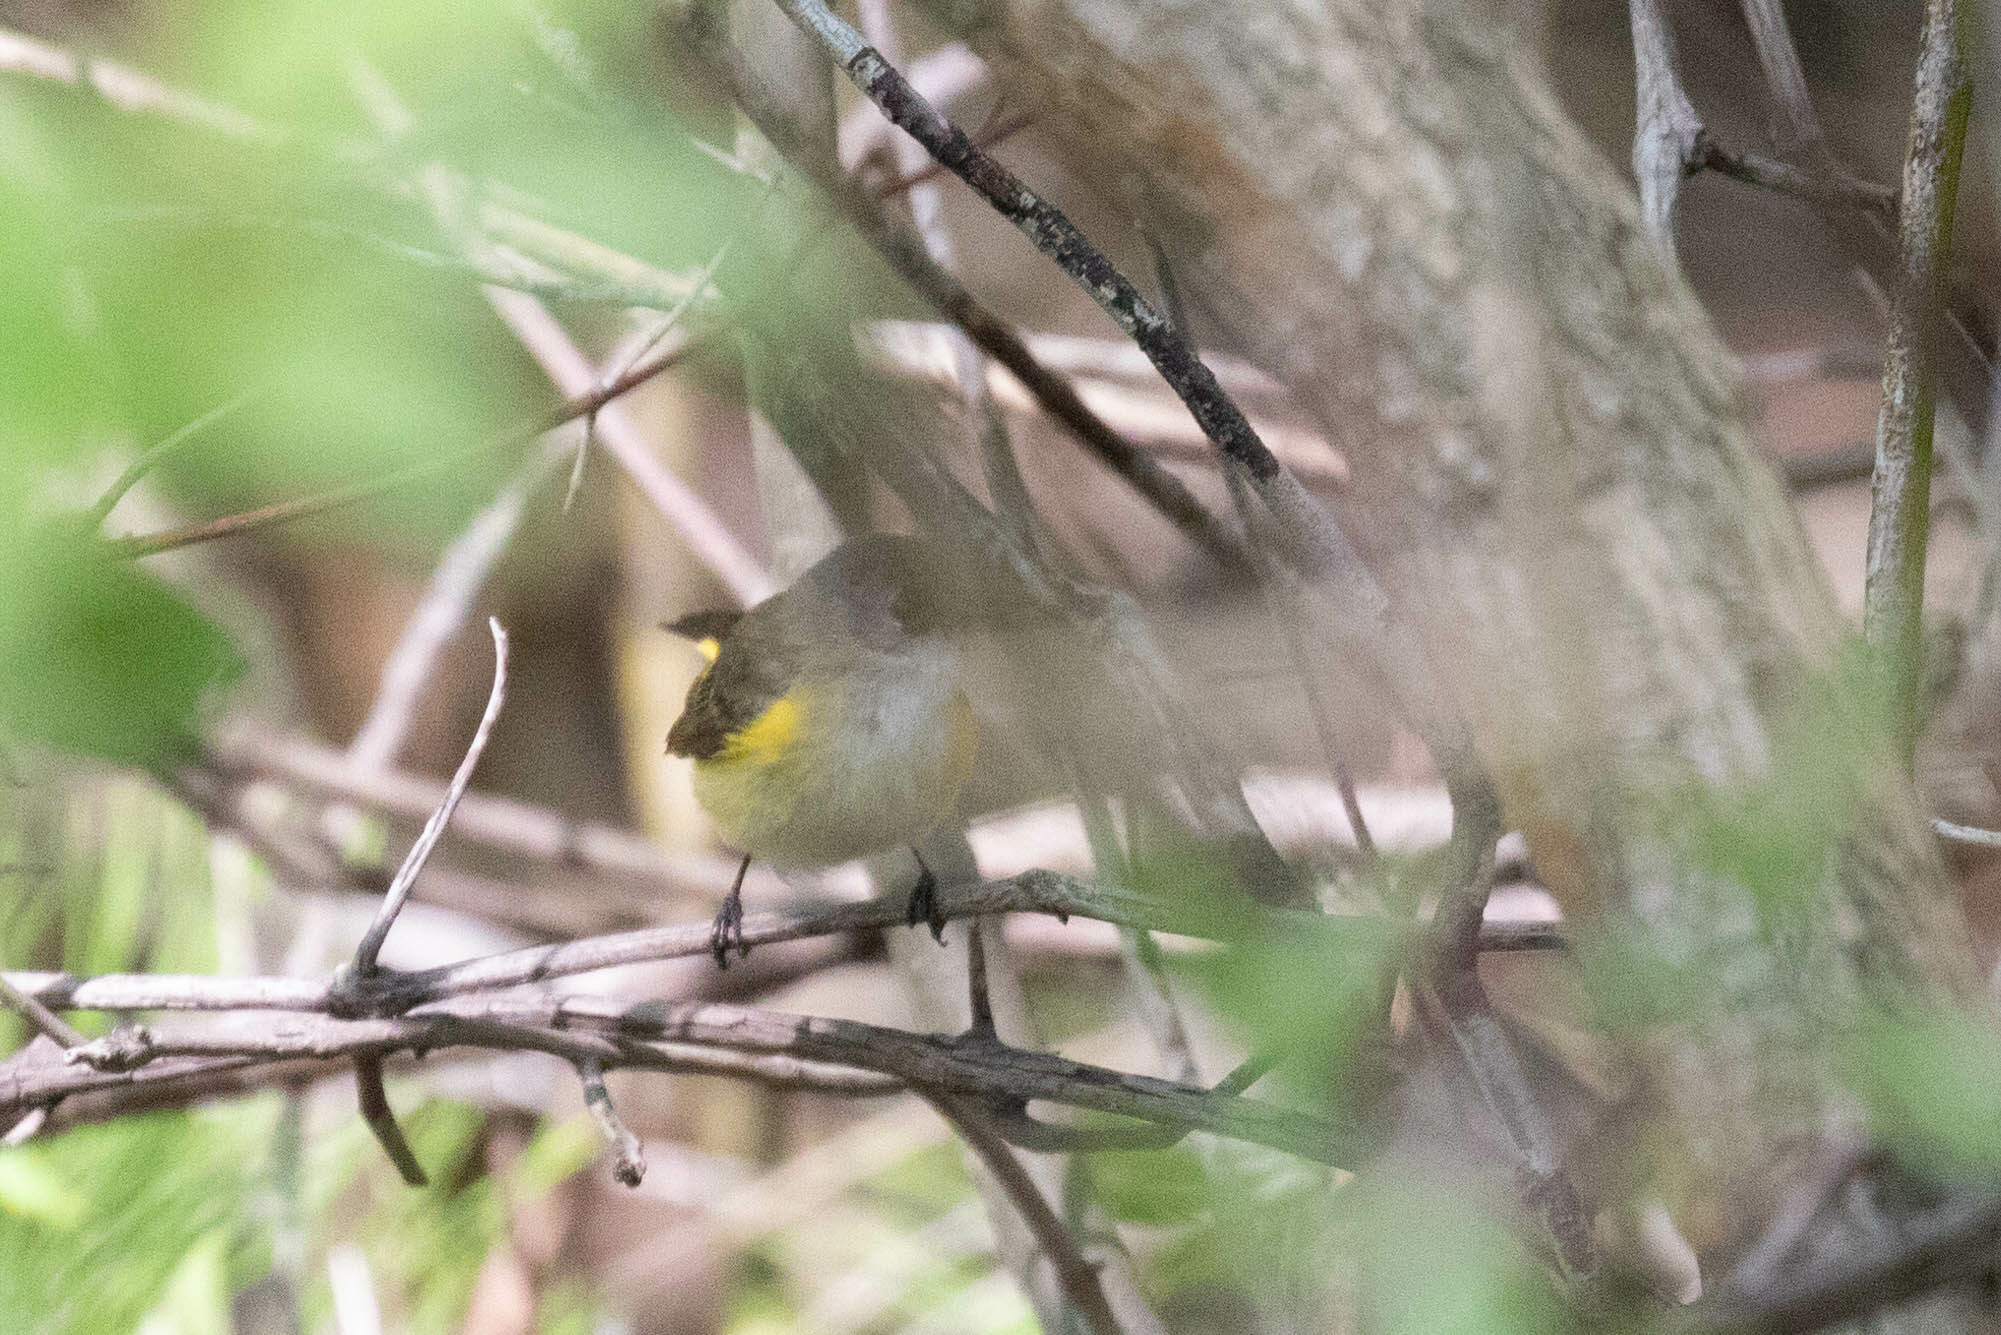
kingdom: Animalia
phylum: Chordata
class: Aves
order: Passeriformes
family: Parulidae
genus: Setophaga
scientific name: Setophaga ruticilla
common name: American redstart
